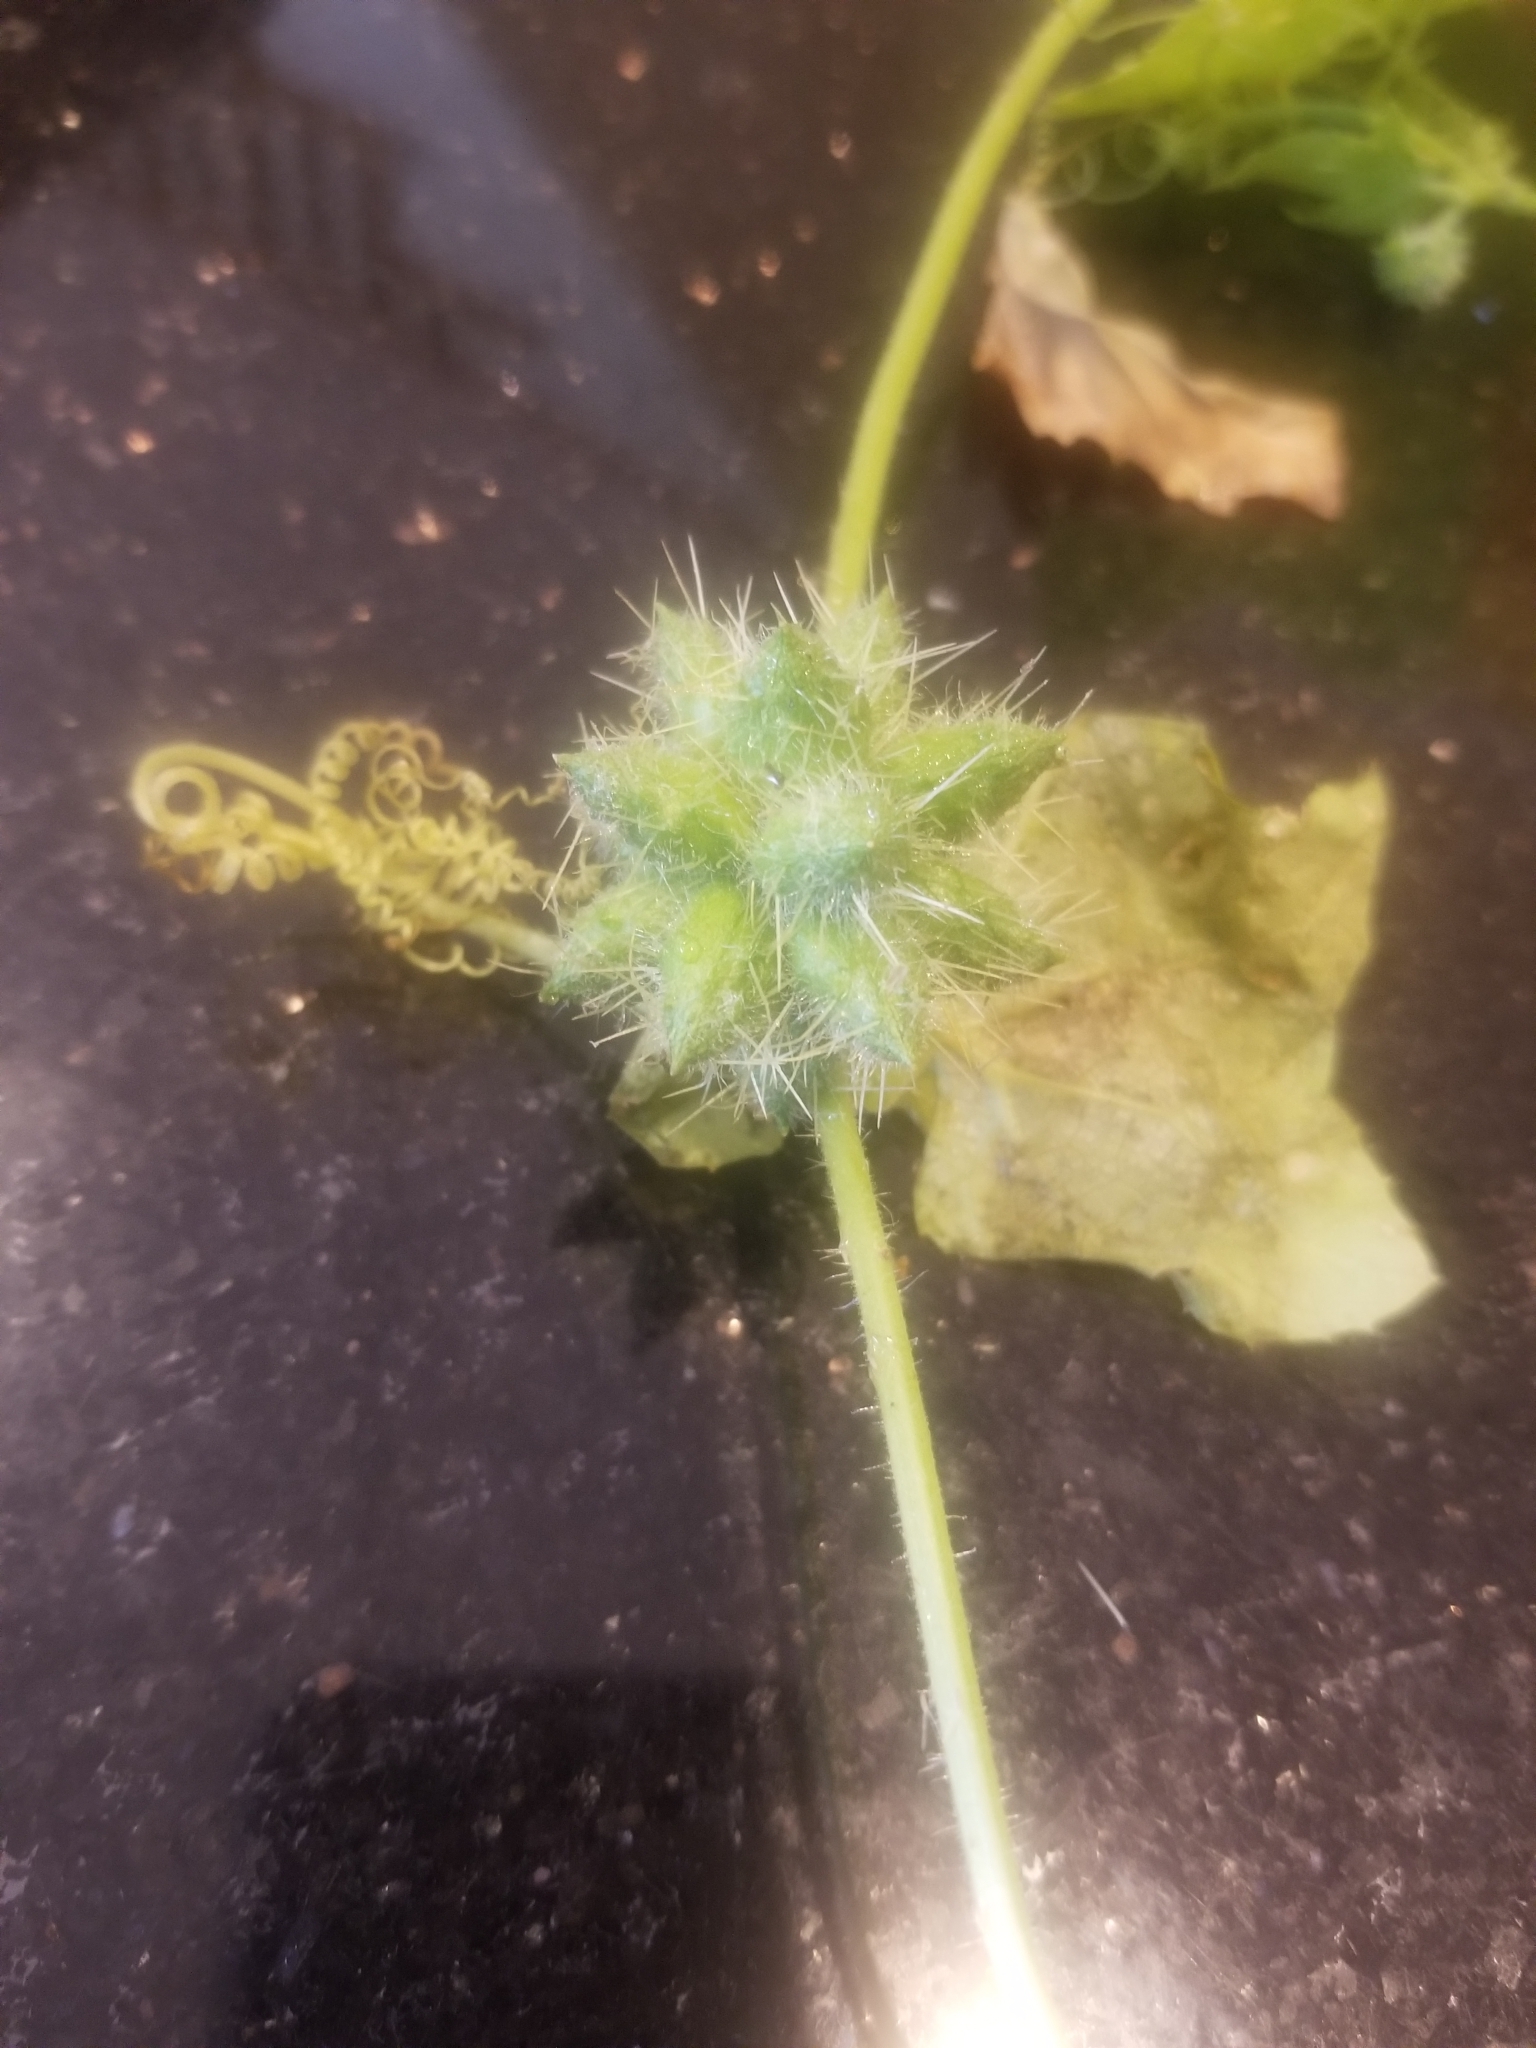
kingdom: Plantae
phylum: Tracheophyta
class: Magnoliopsida
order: Cucurbitales
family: Cucurbitaceae
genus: Sicyos
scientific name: Sicyos angulatus
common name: Angled burr cucumber
